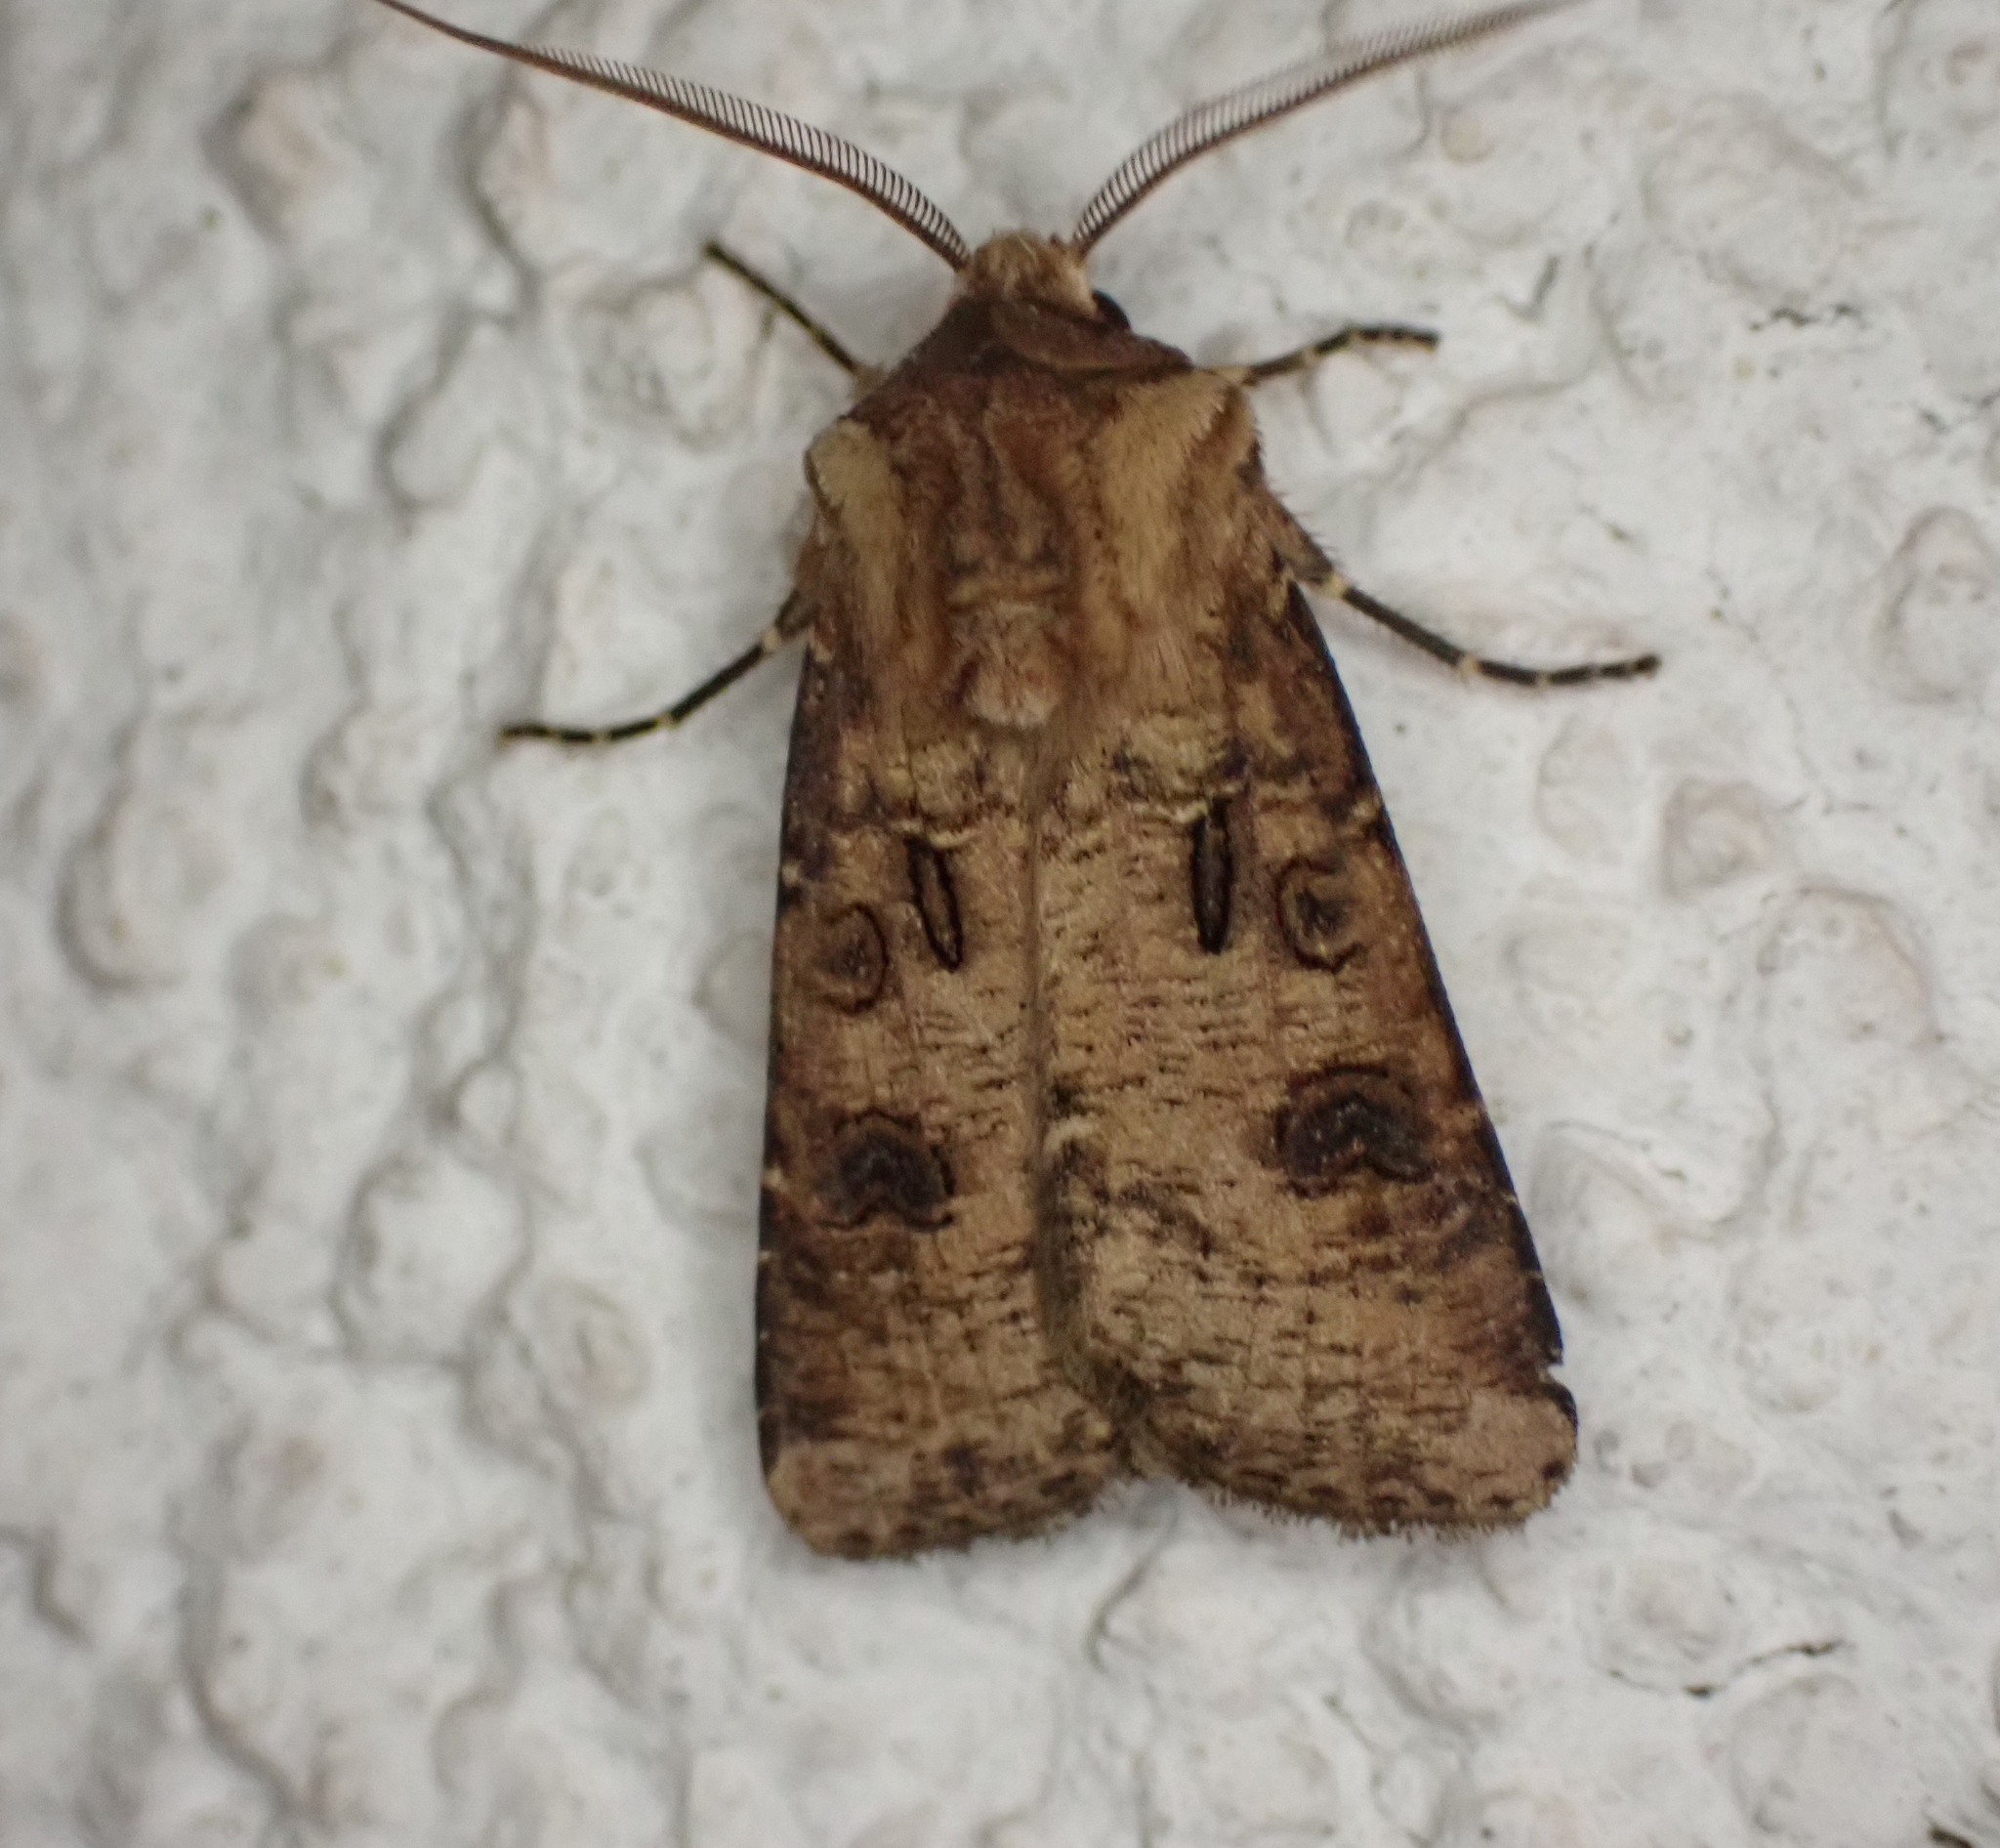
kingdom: Animalia
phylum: Arthropoda
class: Insecta
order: Lepidoptera
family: Noctuidae
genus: Agrotis
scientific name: Agrotis clavis
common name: Heart and club
